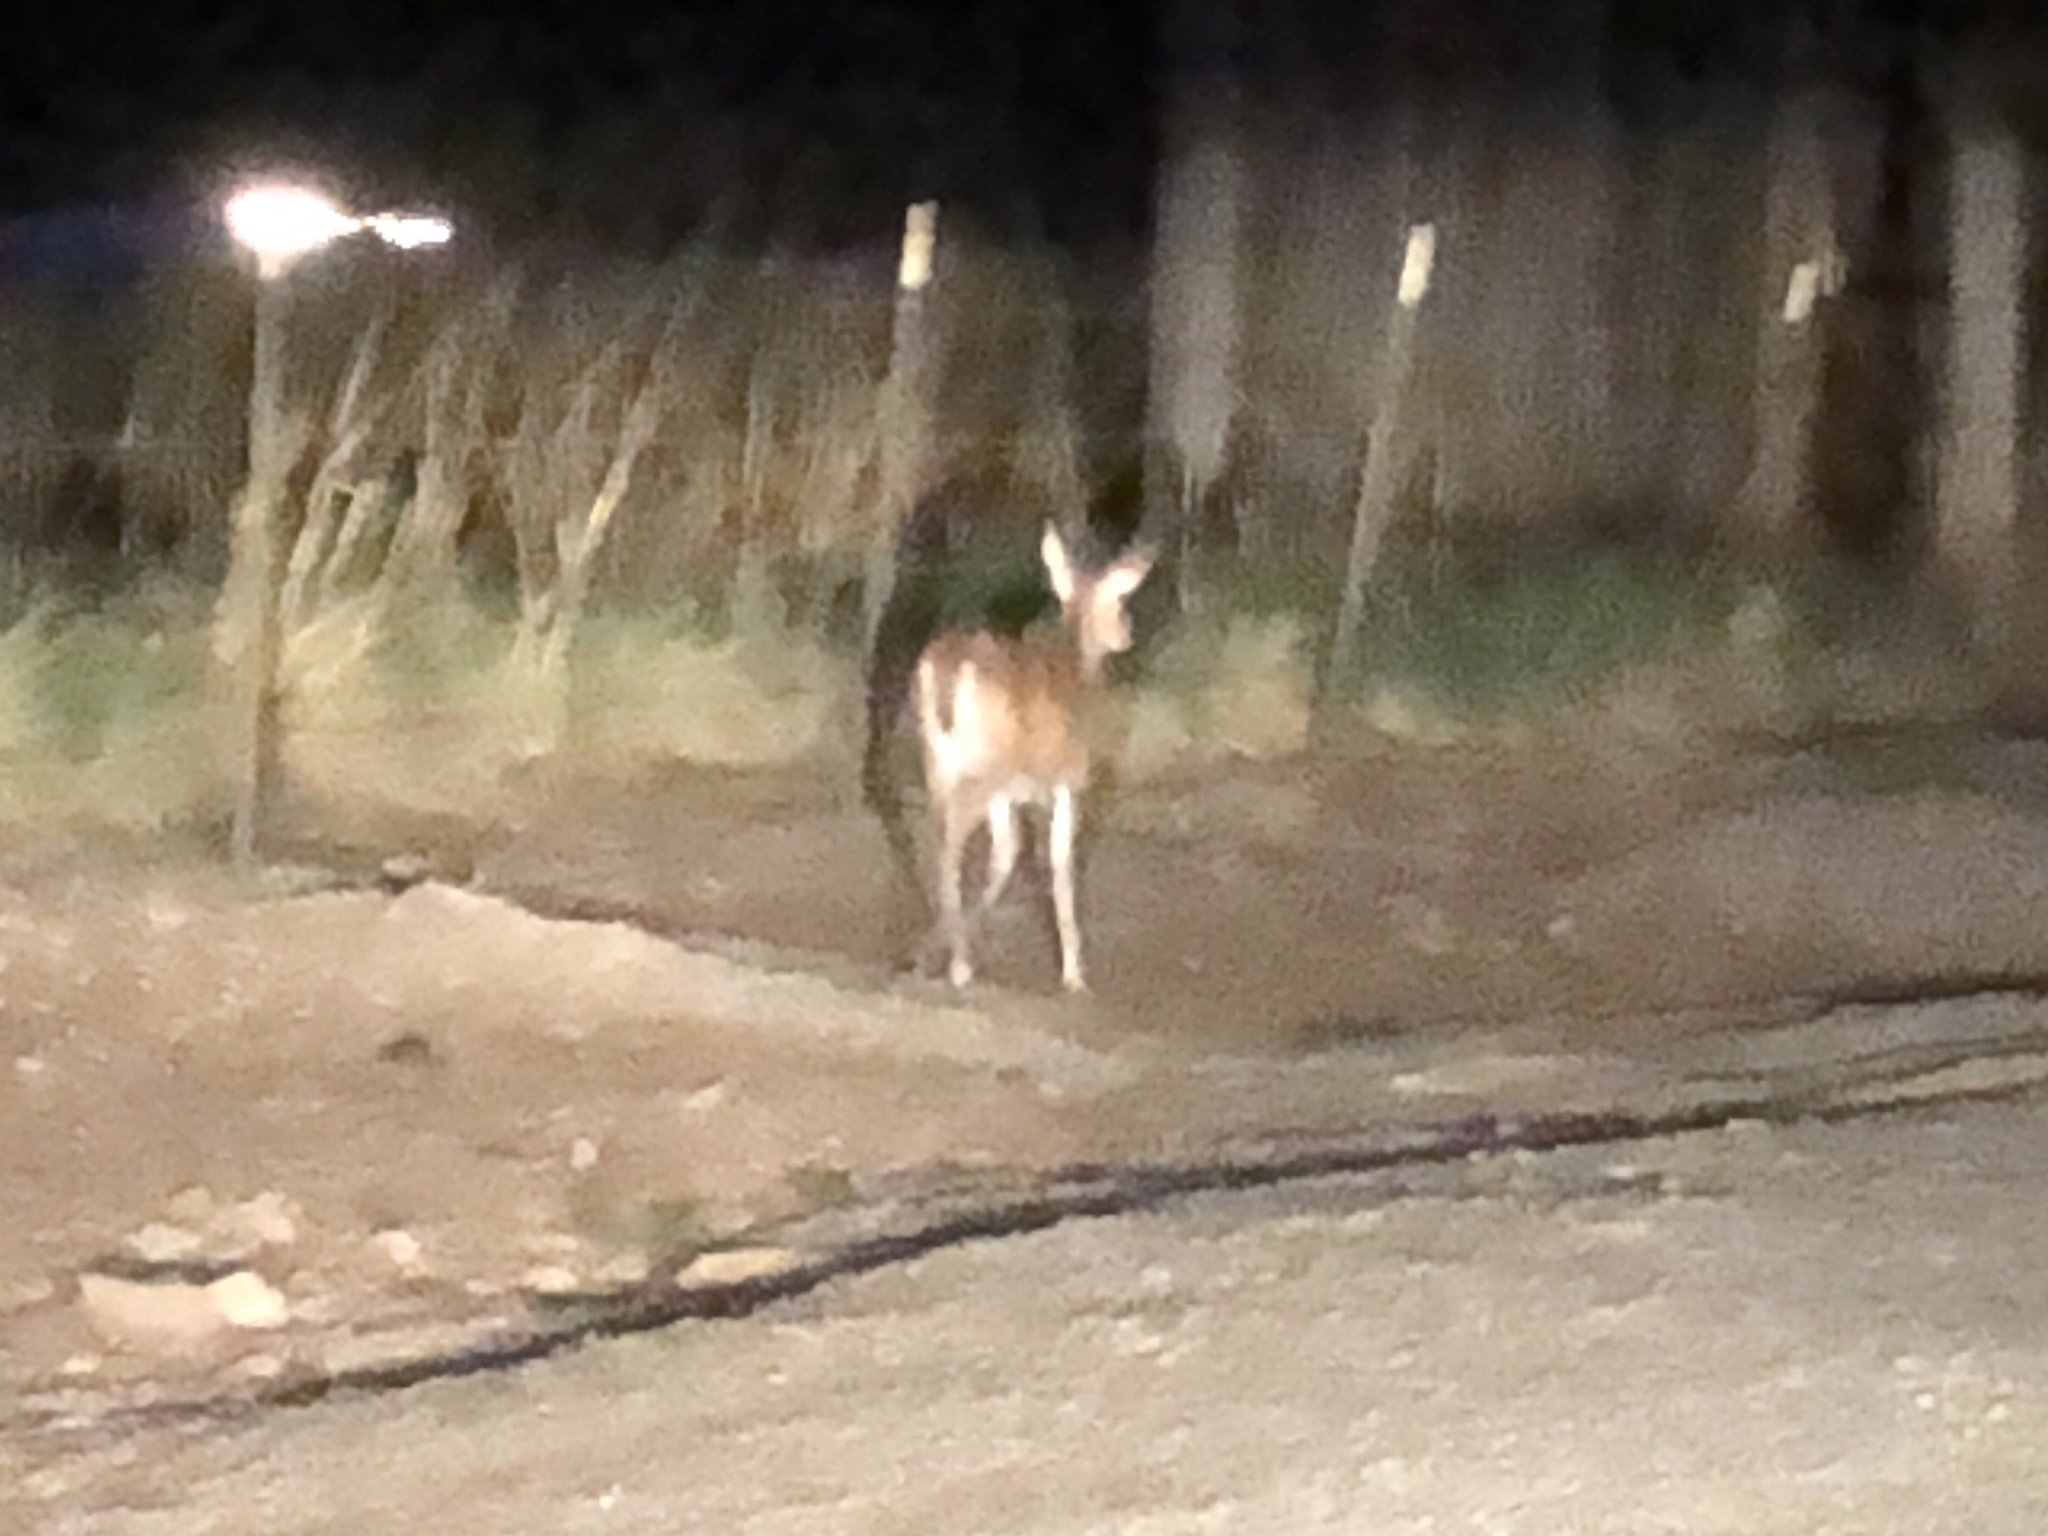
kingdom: Animalia
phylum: Chordata
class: Mammalia
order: Artiodactyla
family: Cervidae
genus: Odocoileus
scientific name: Odocoileus virginianus
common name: White-tailed deer
